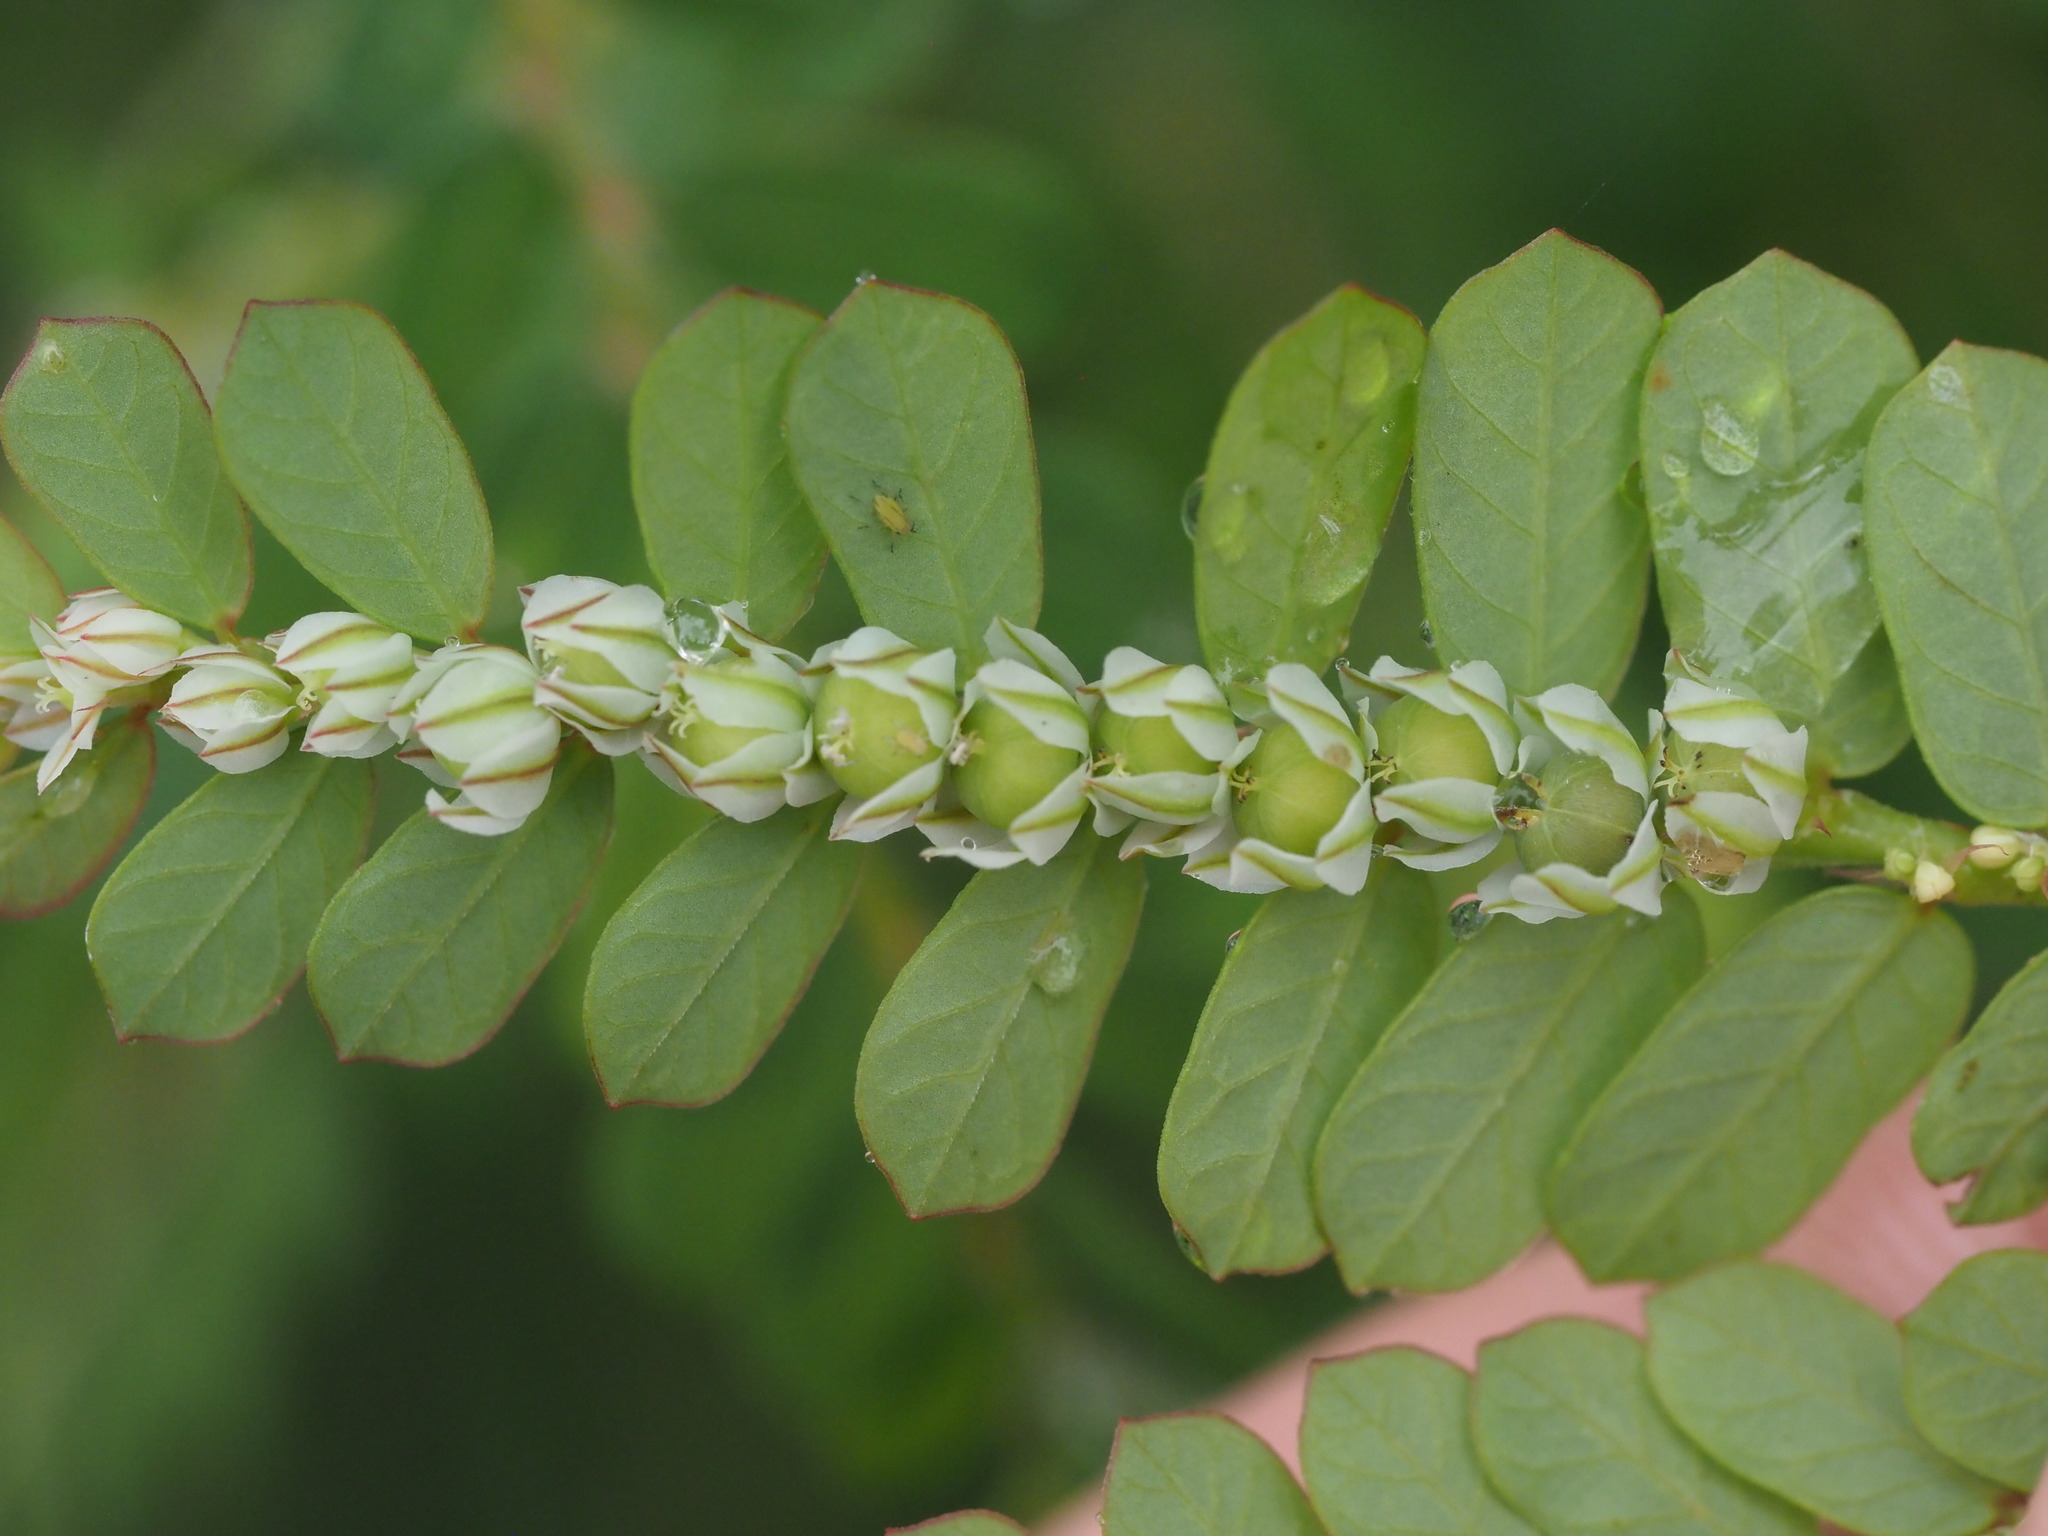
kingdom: Plantae
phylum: Tracheophyta
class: Magnoliopsida
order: Malpighiales
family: Phyllanthaceae
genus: Phyllanthus
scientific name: Phyllanthus leucanthus
